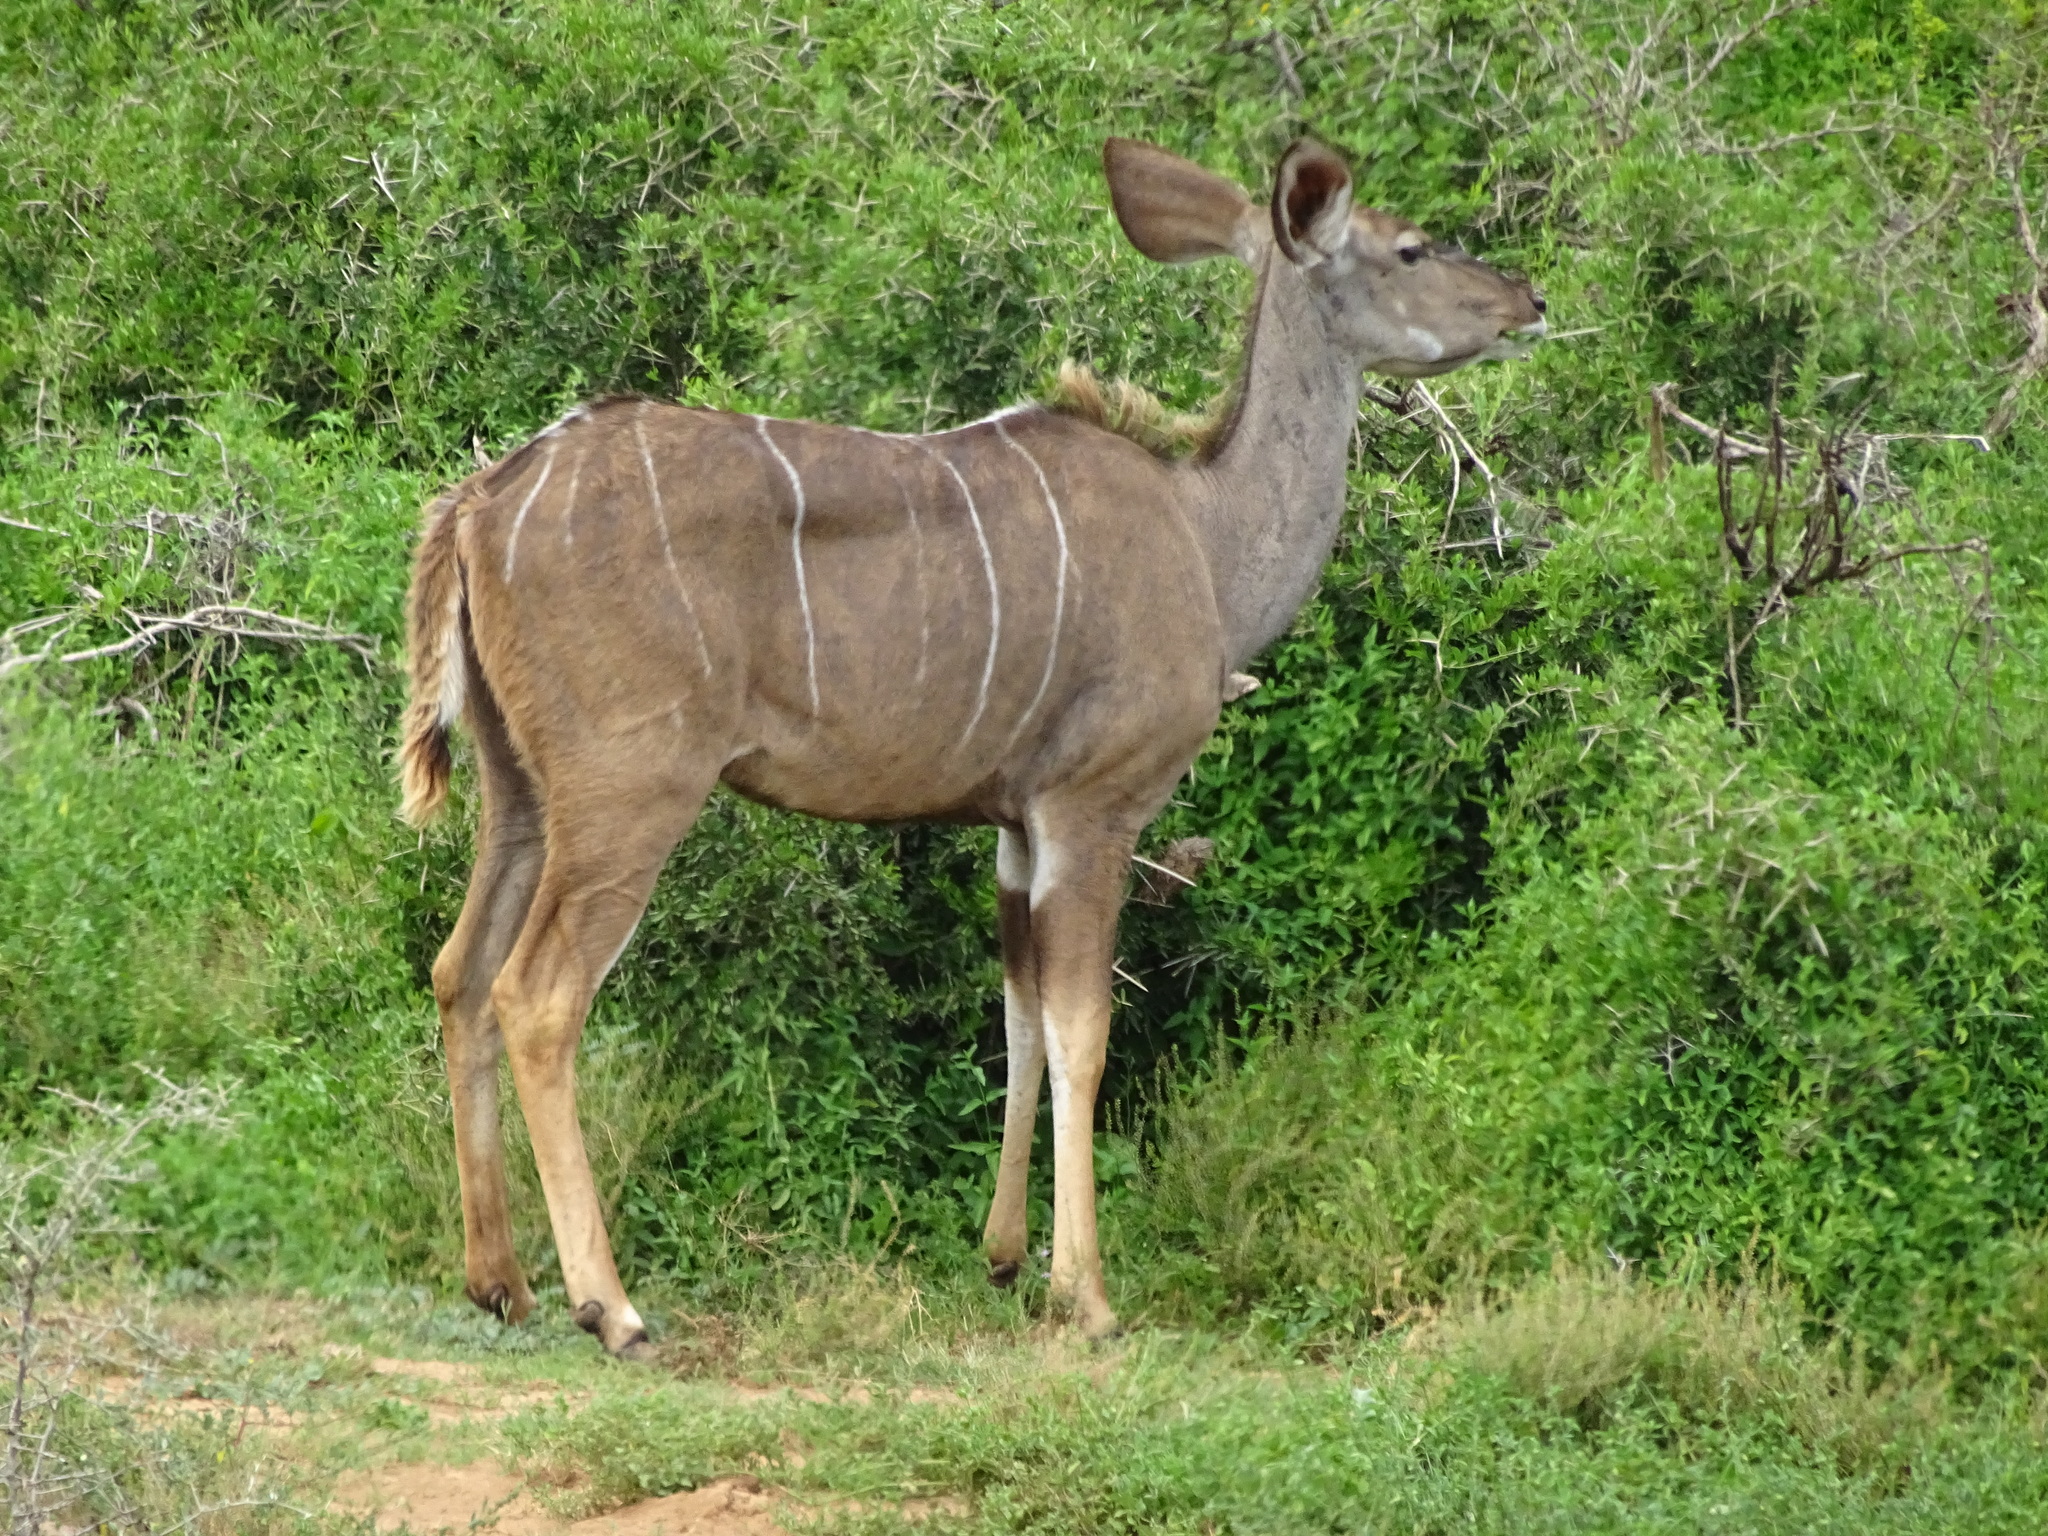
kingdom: Animalia
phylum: Chordata
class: Mammalia
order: Artiodactyla
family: Bovidae
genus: Tragelaphus
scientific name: Tragelaphus strepsiceros
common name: Greater kudu
